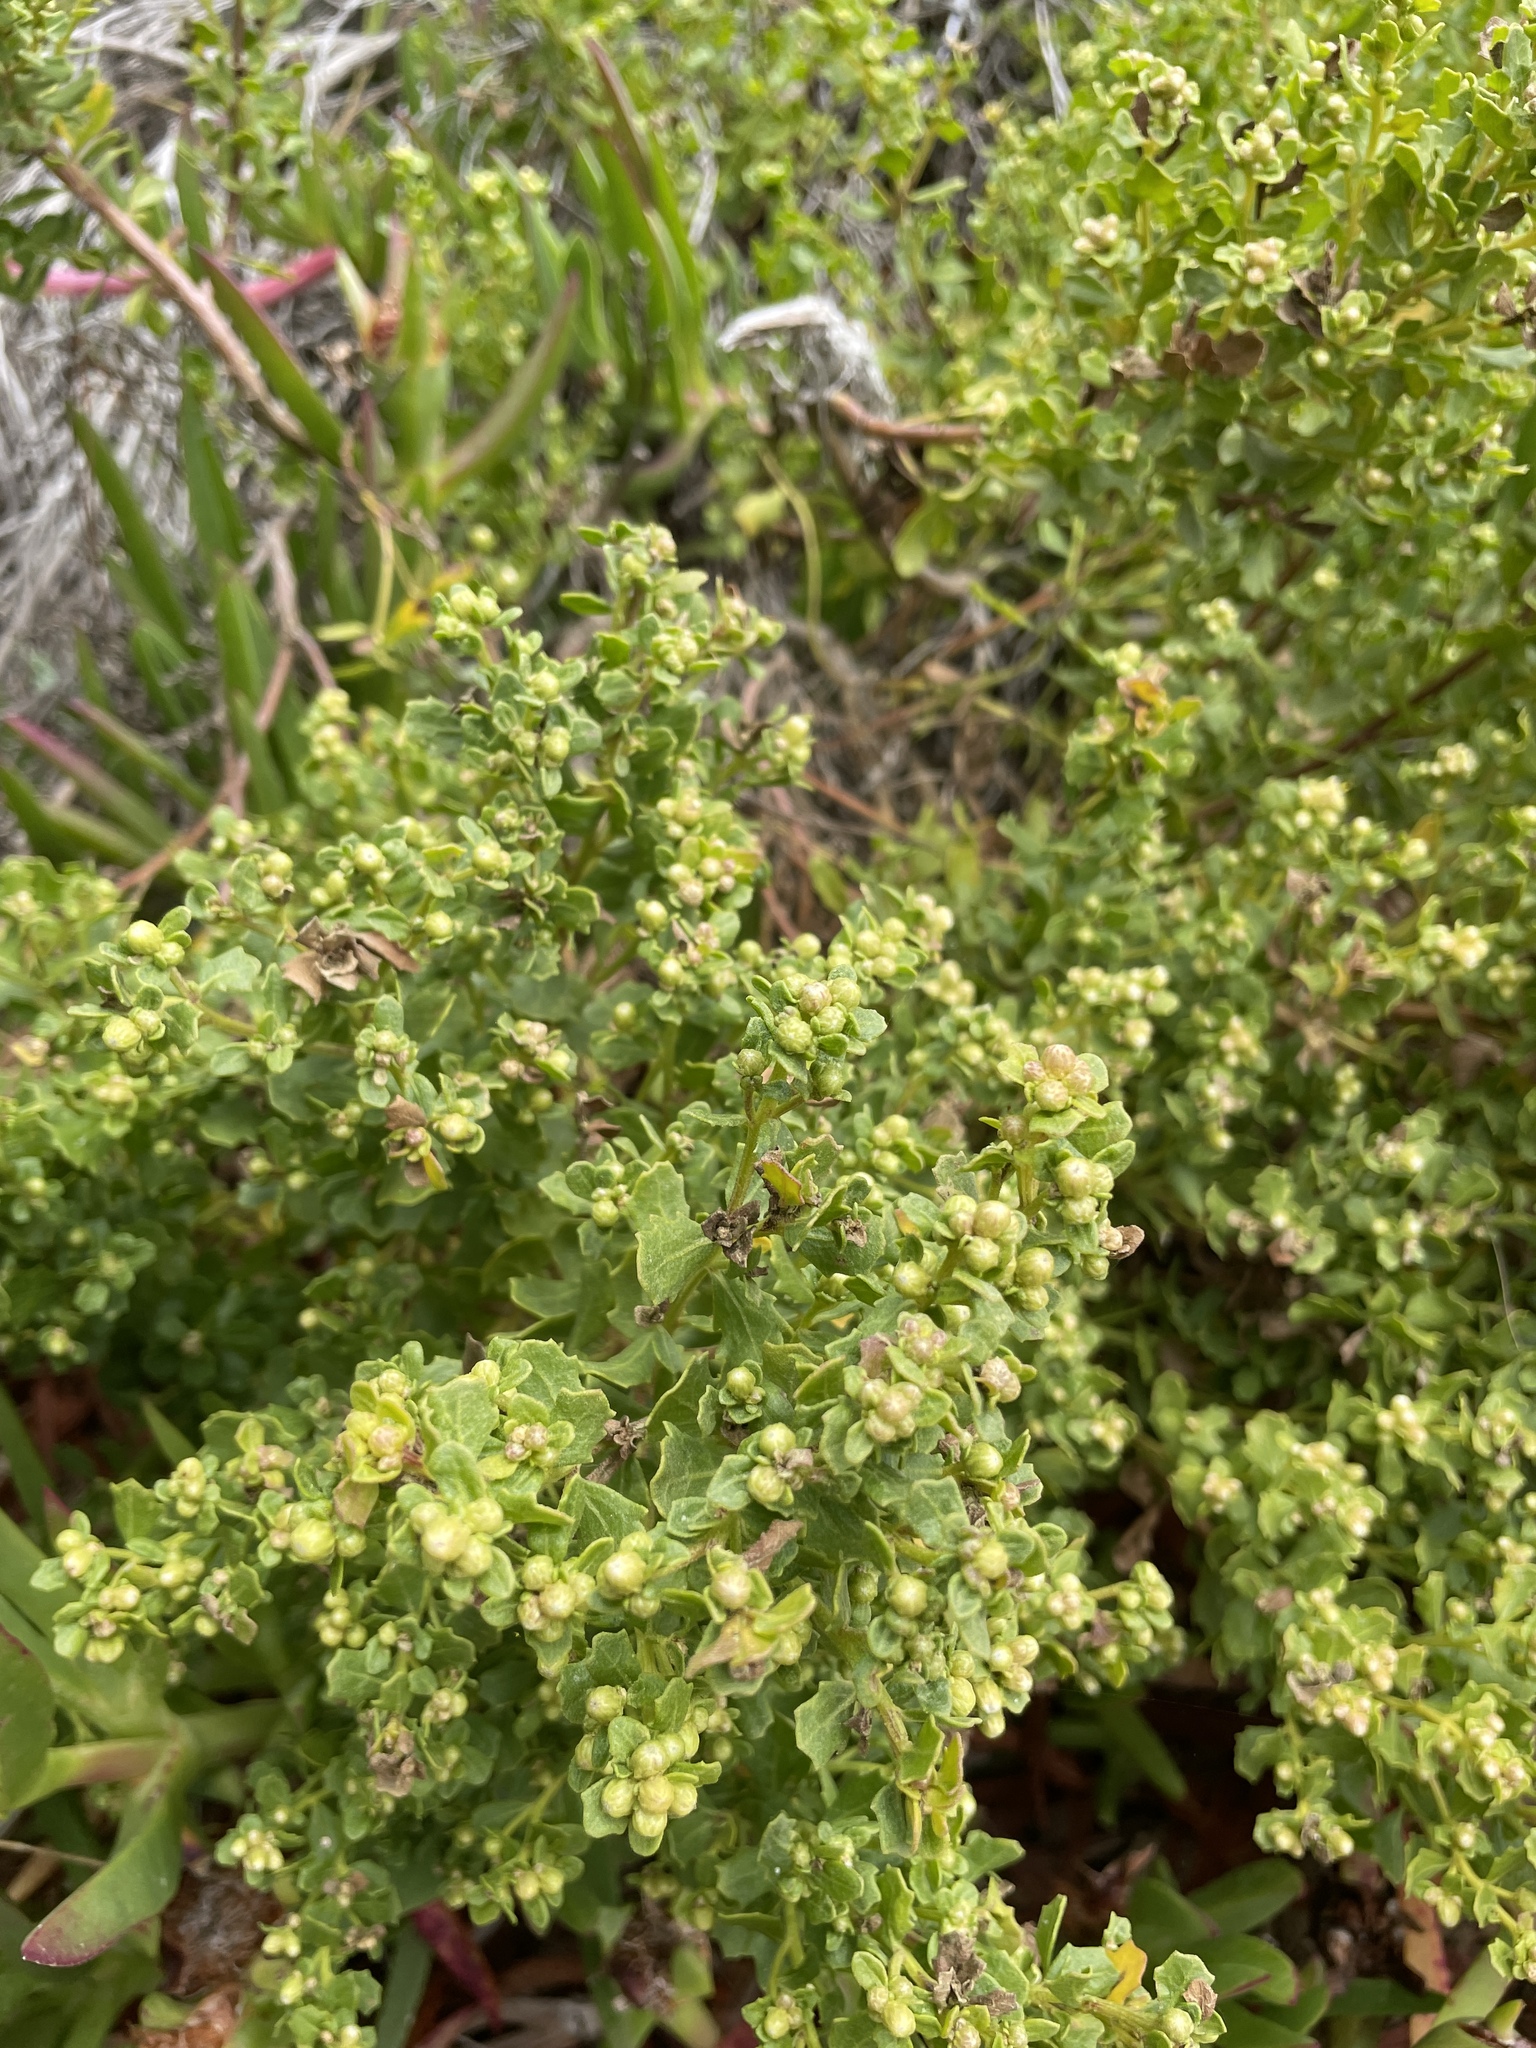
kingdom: Plantae
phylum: Tracheophyta
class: Magnoliopsida
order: Asterales
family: Asteraceae
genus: Baccharis
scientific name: Baccharis pilularis
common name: Coyotebrush
